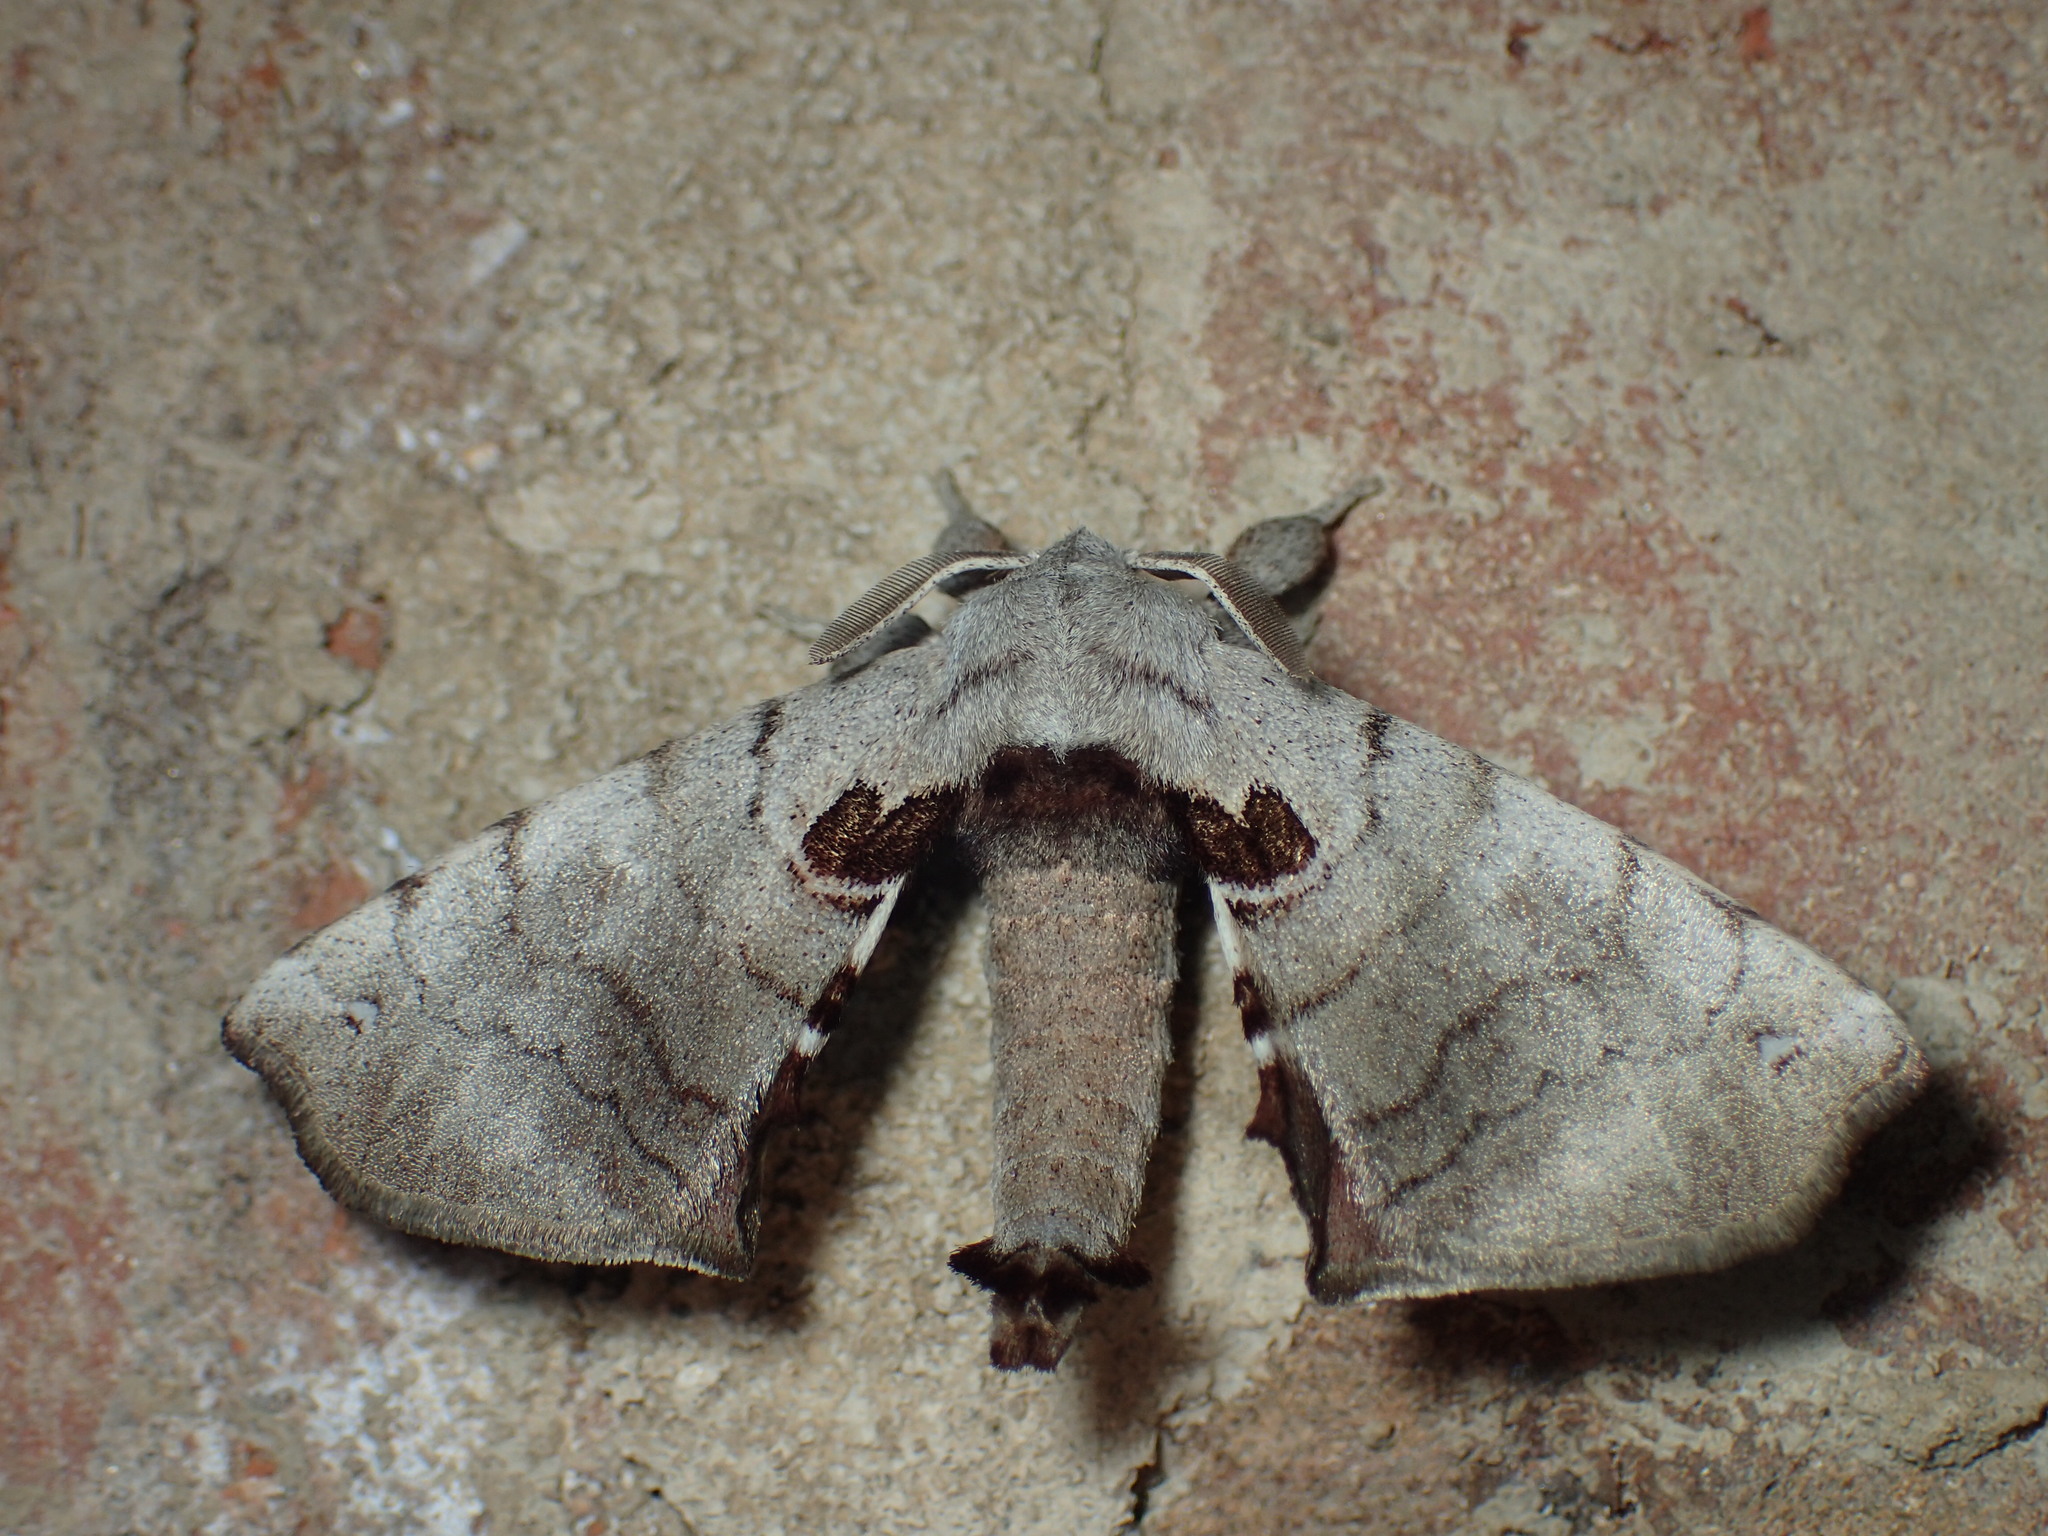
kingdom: Animalia
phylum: Arthropoda
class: Insecta
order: Lepidoptera
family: Apatelodidae
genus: Hygrochroa
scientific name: Hygrochroa Apatelodes torrefacta
